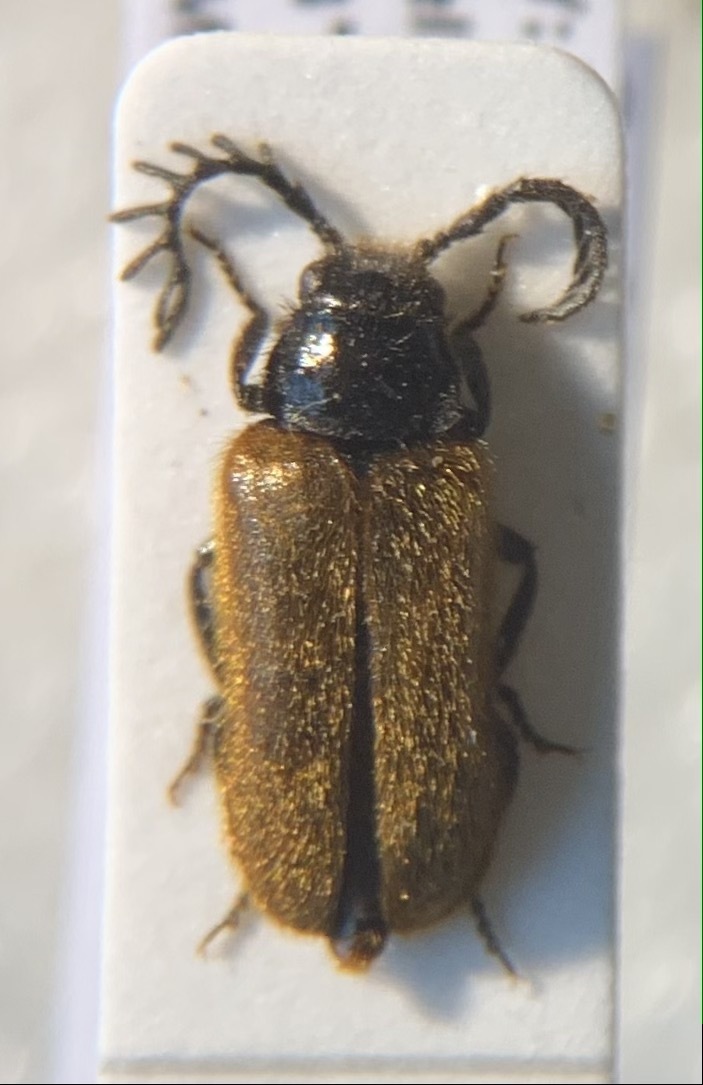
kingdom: Animalia
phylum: Arthropoda
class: Insecta
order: Coleoptera
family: Drilidae
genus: Drilus
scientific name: Drilus flavescens
